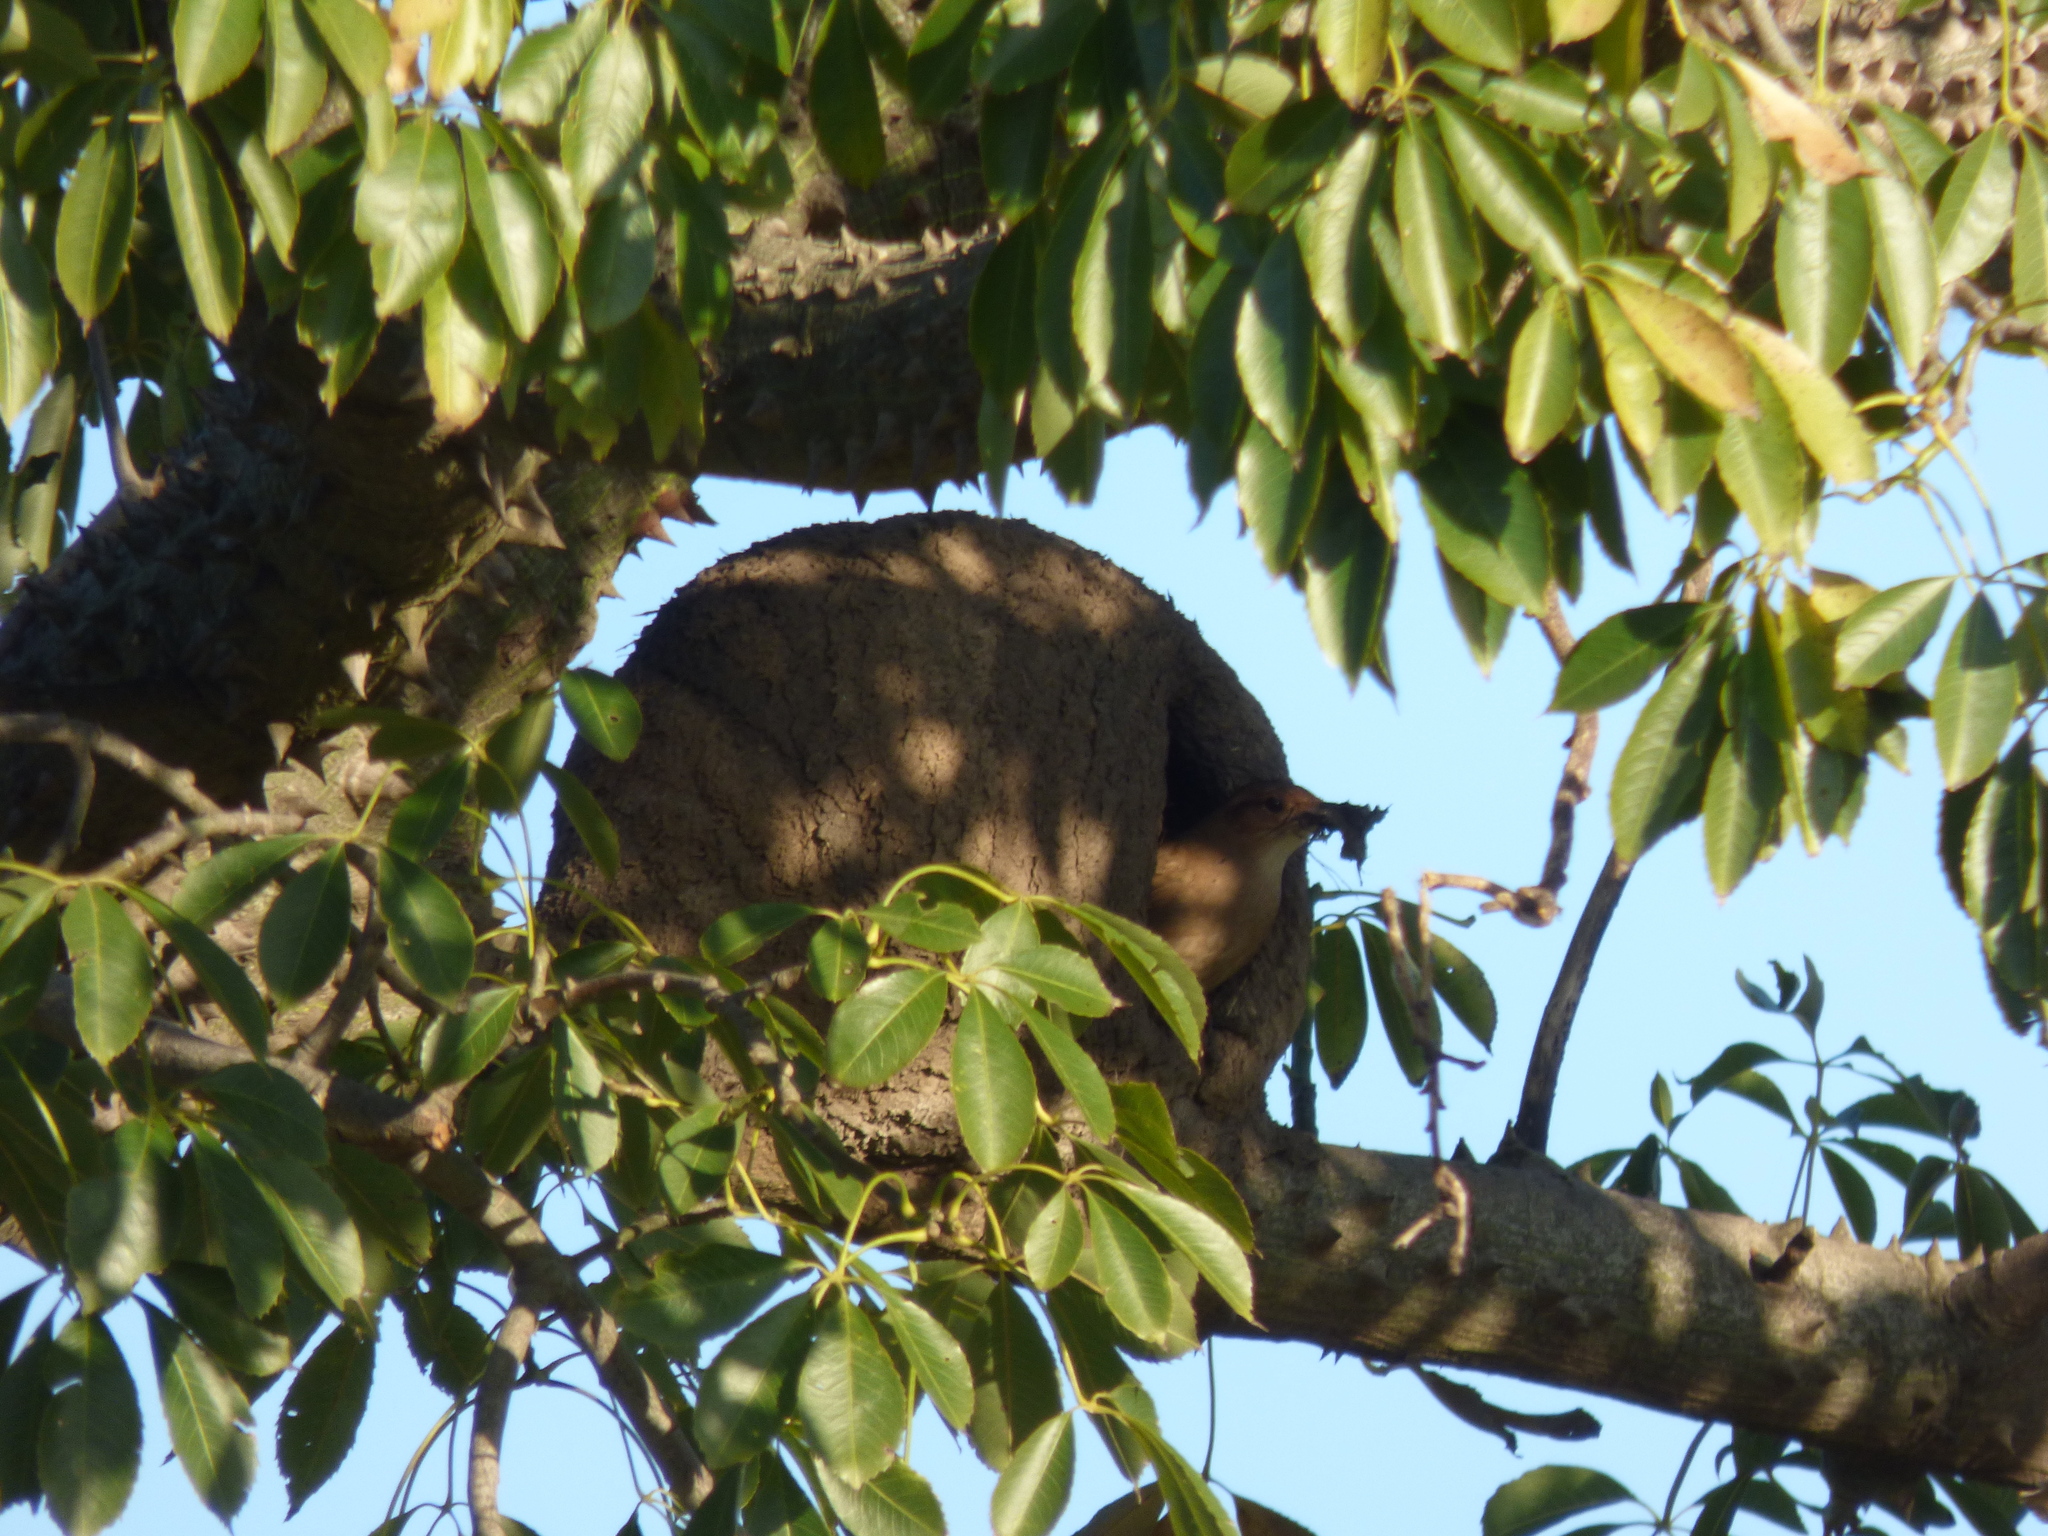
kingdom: Animalia
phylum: Chordata
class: Aves
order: Passeriformes
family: Furnariidae
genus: Furnarius
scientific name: Furnarius rufus
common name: Rufous hornero
